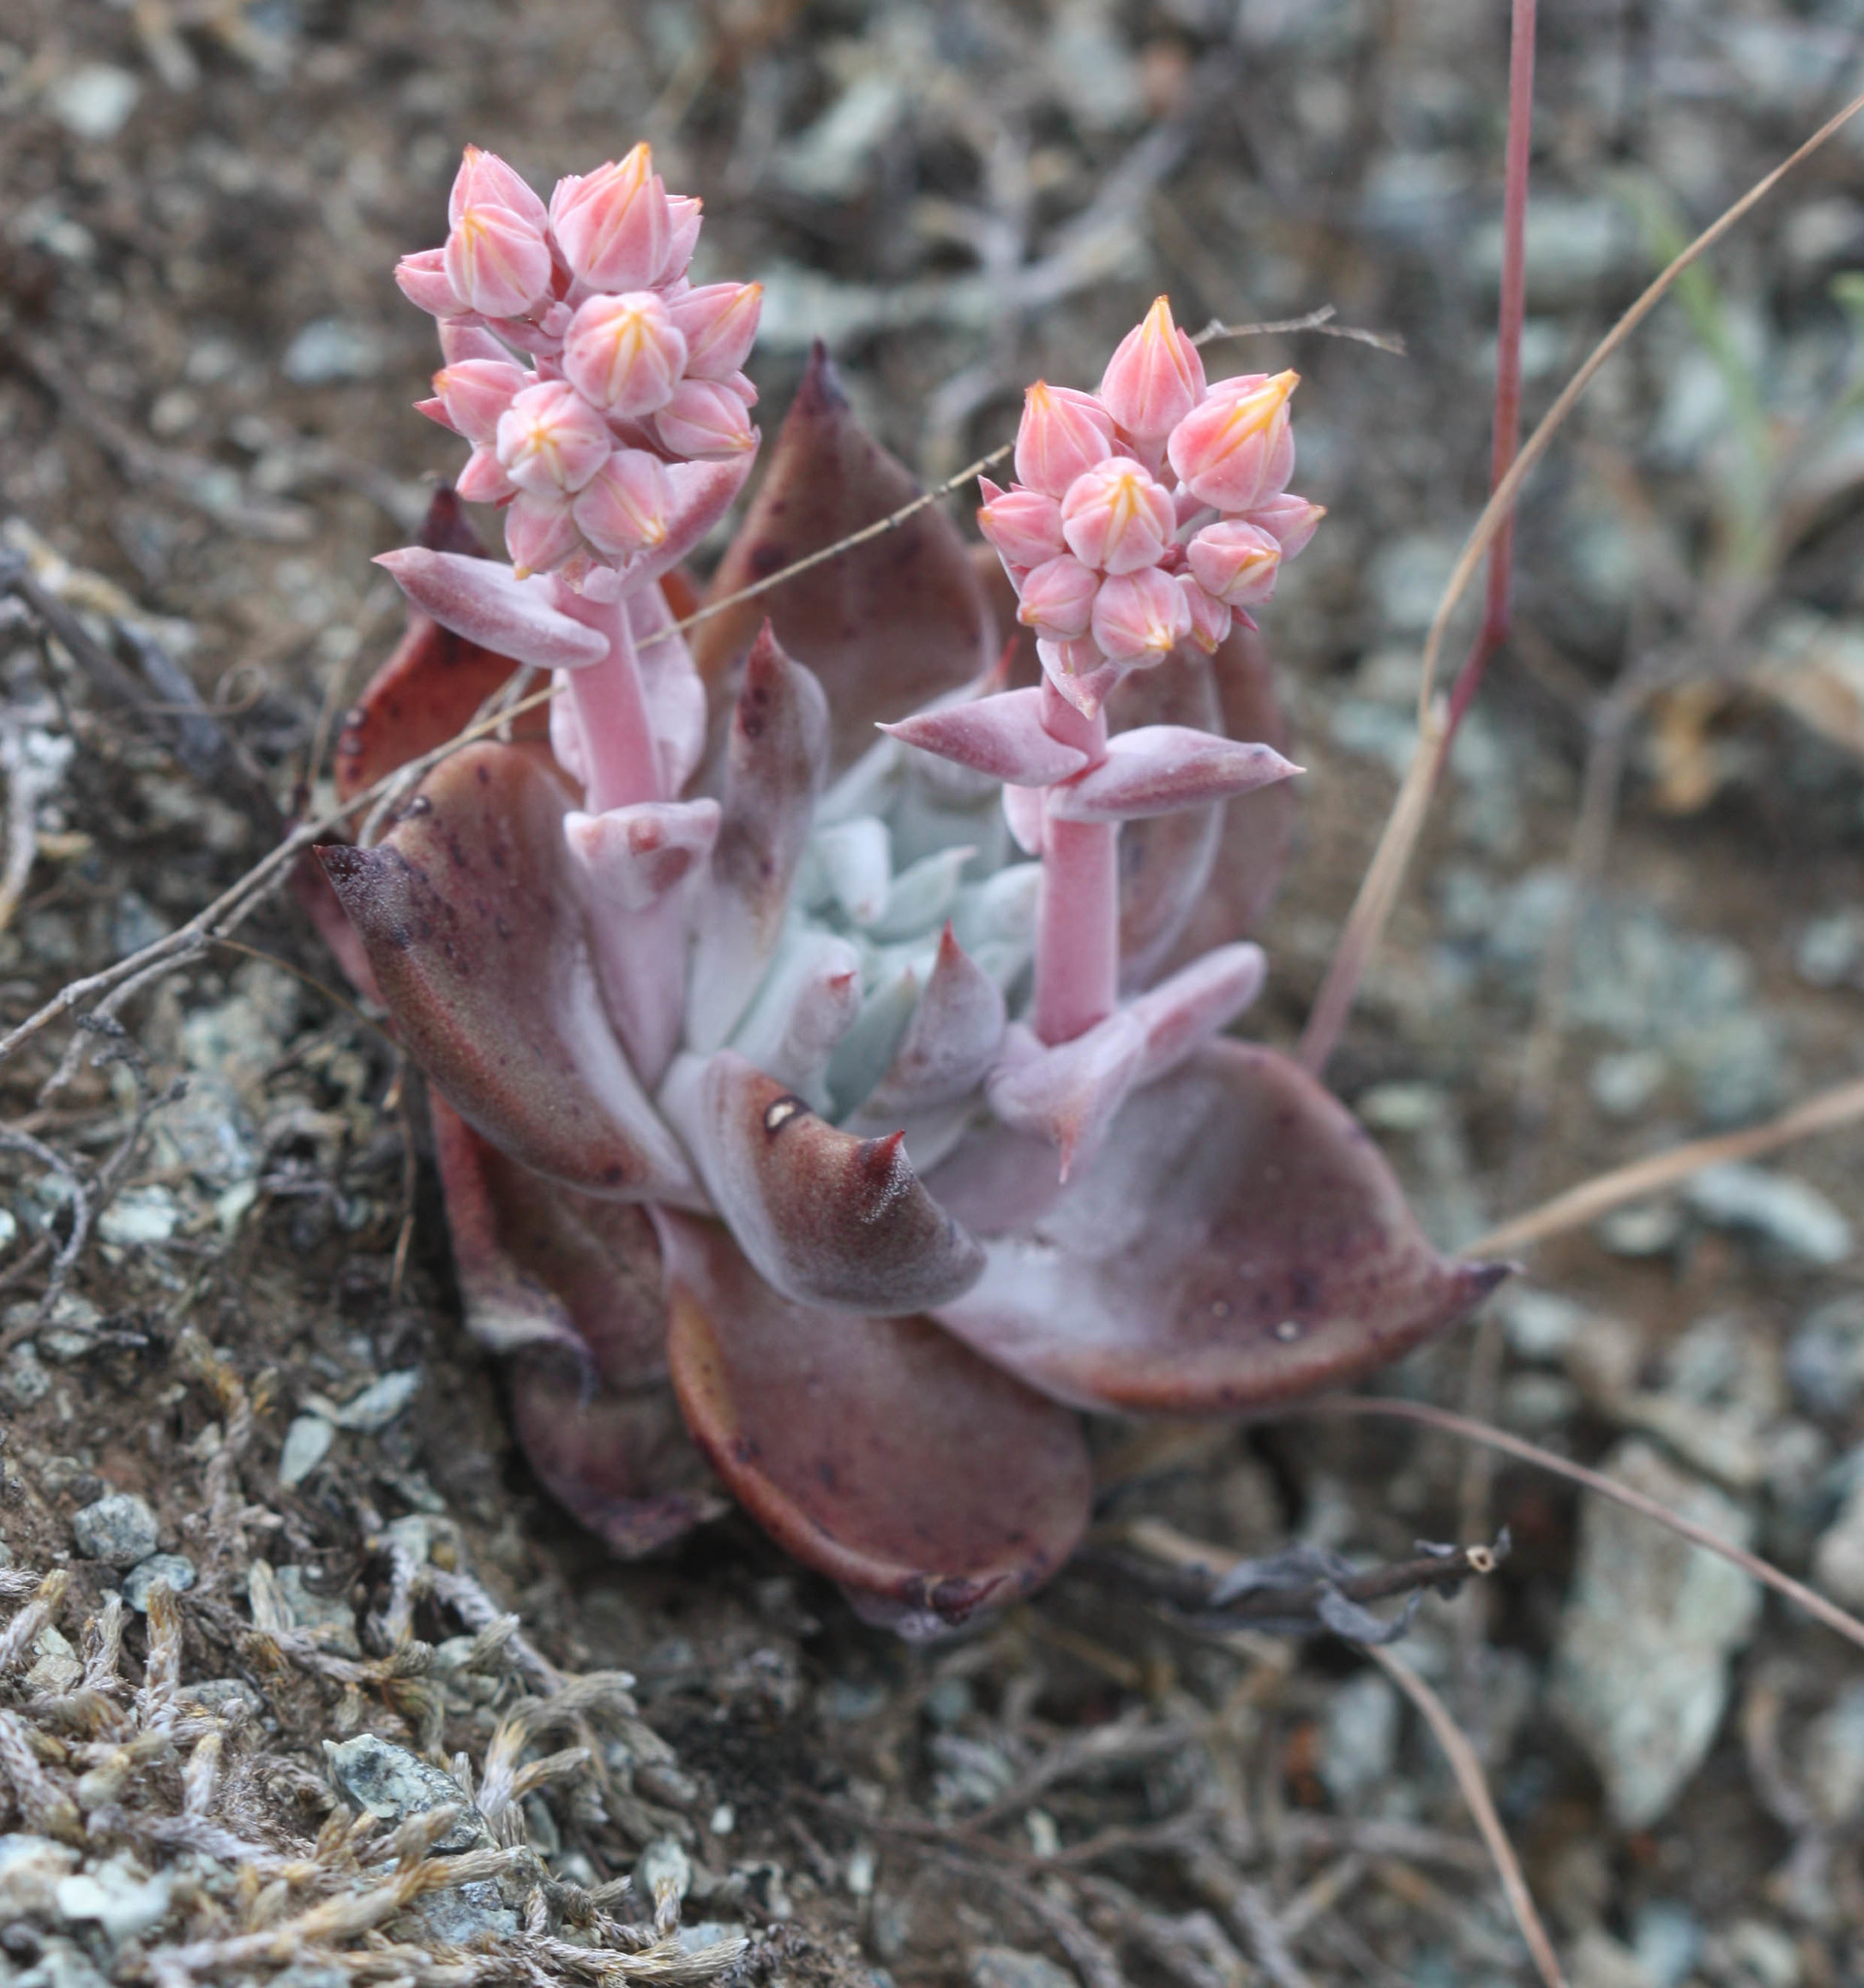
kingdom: Plantae
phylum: Tracheophyta
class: Magnoliopsida
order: Saxifragales
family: Crassulaceae
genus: Dudleya
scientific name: Dudleya cymosa
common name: Canyon dudleya
